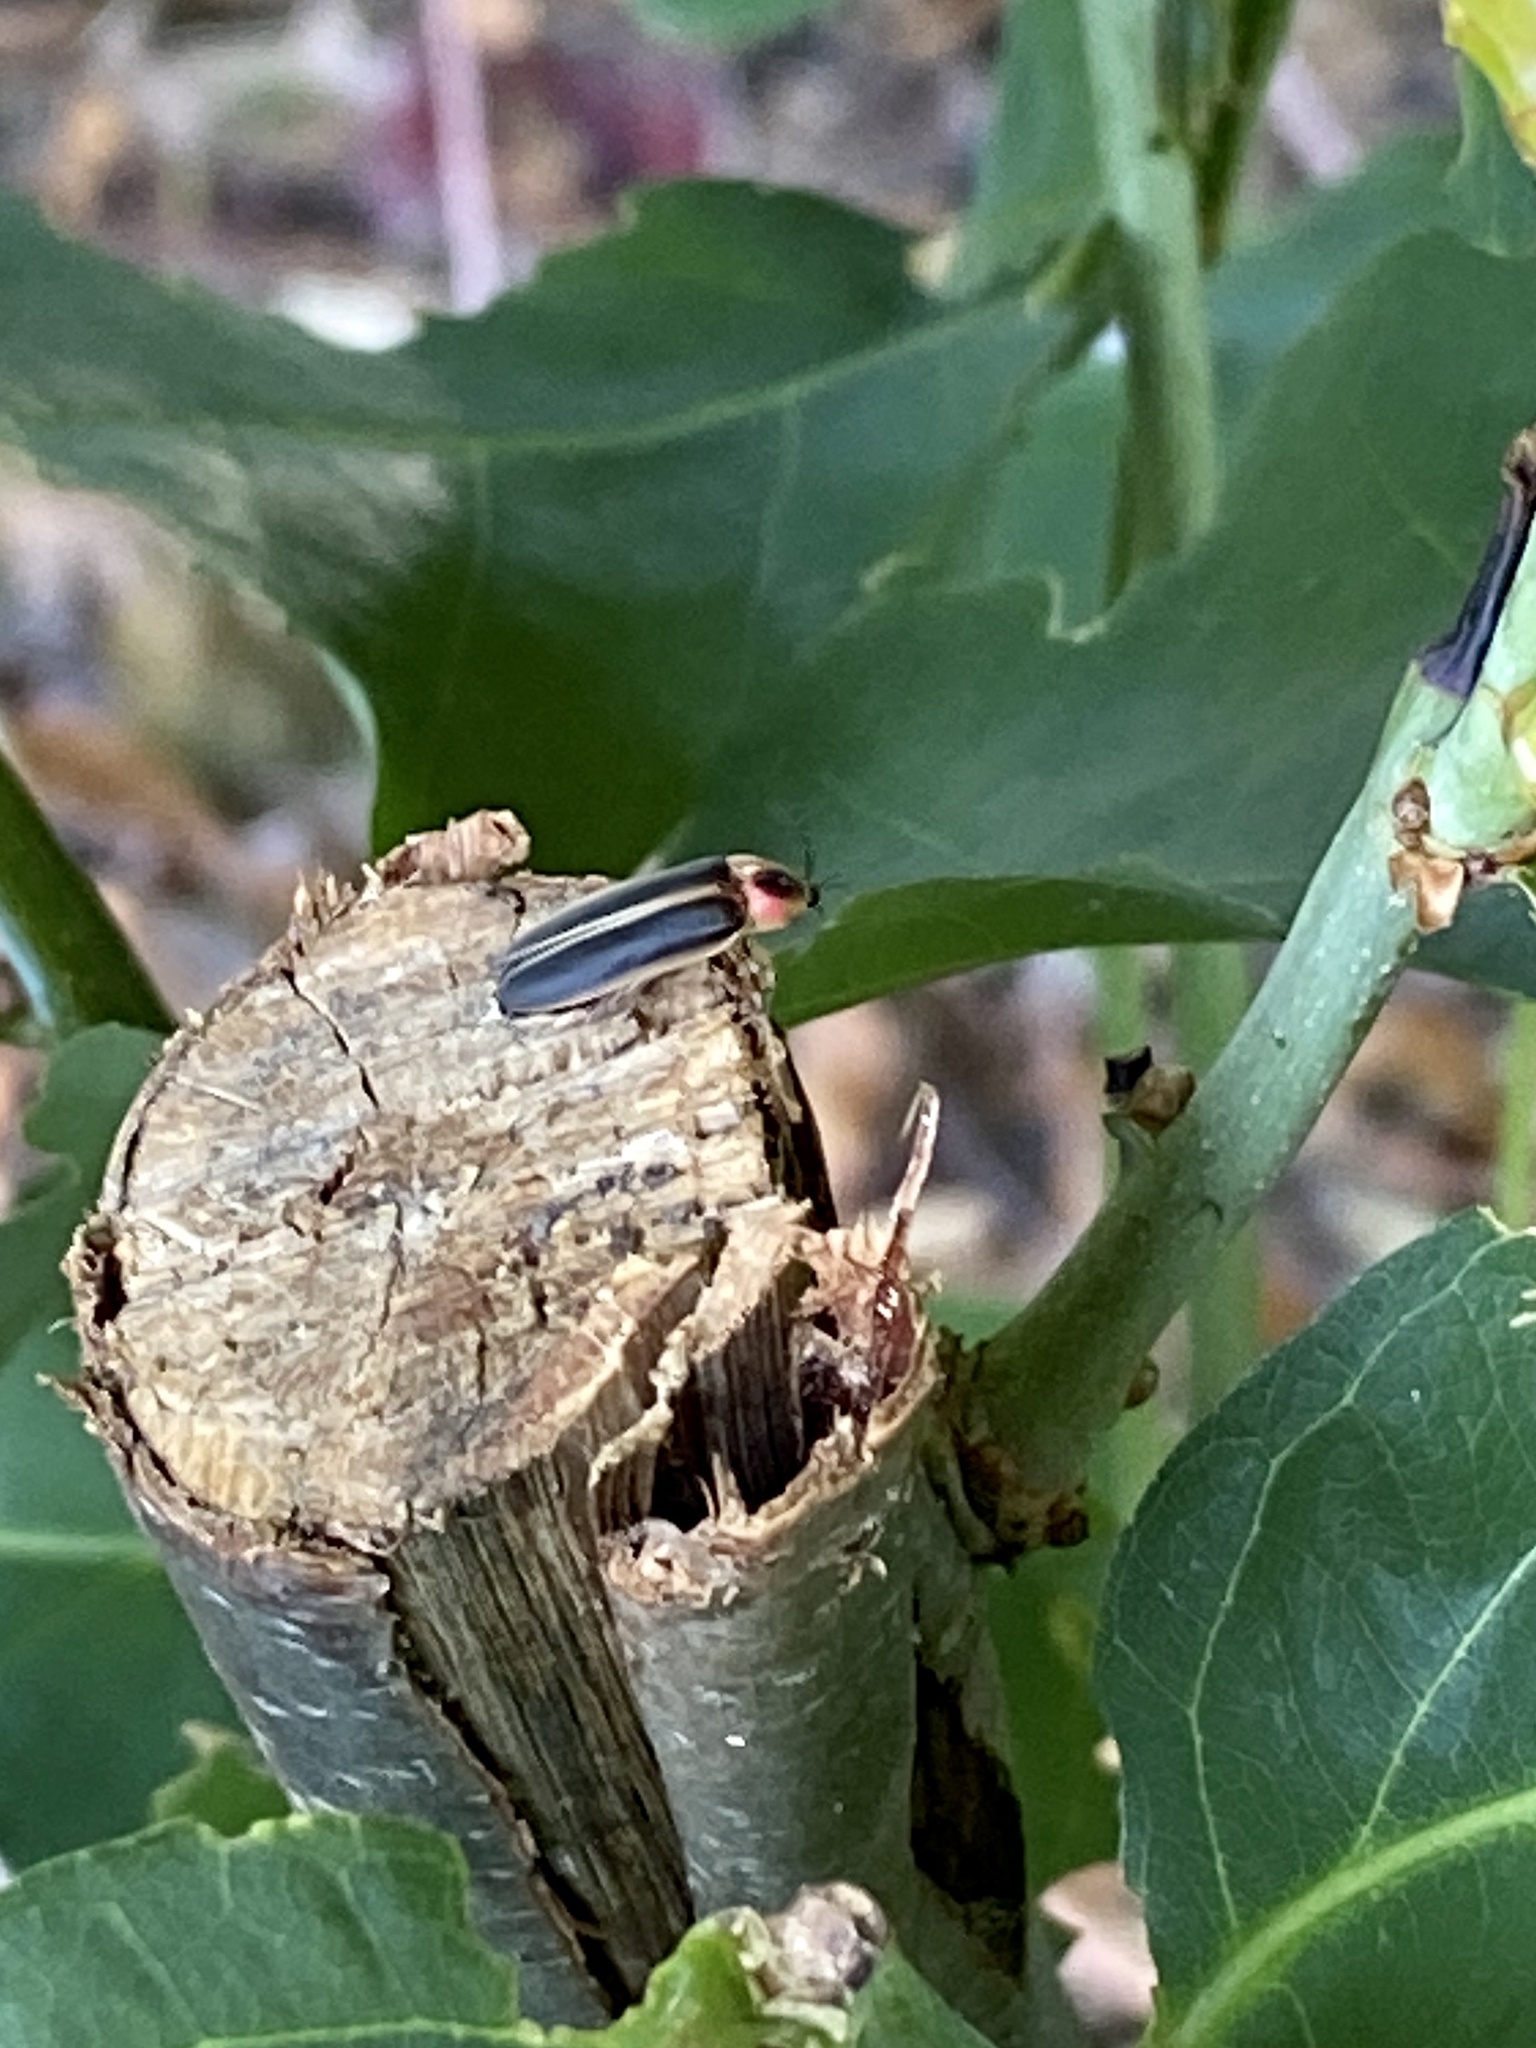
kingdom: Animalia
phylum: Arthropoda
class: Insecta
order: Coleoptera
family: Lampyridae
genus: Photinus
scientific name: Photinus pyralis
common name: Big dipper firefly
